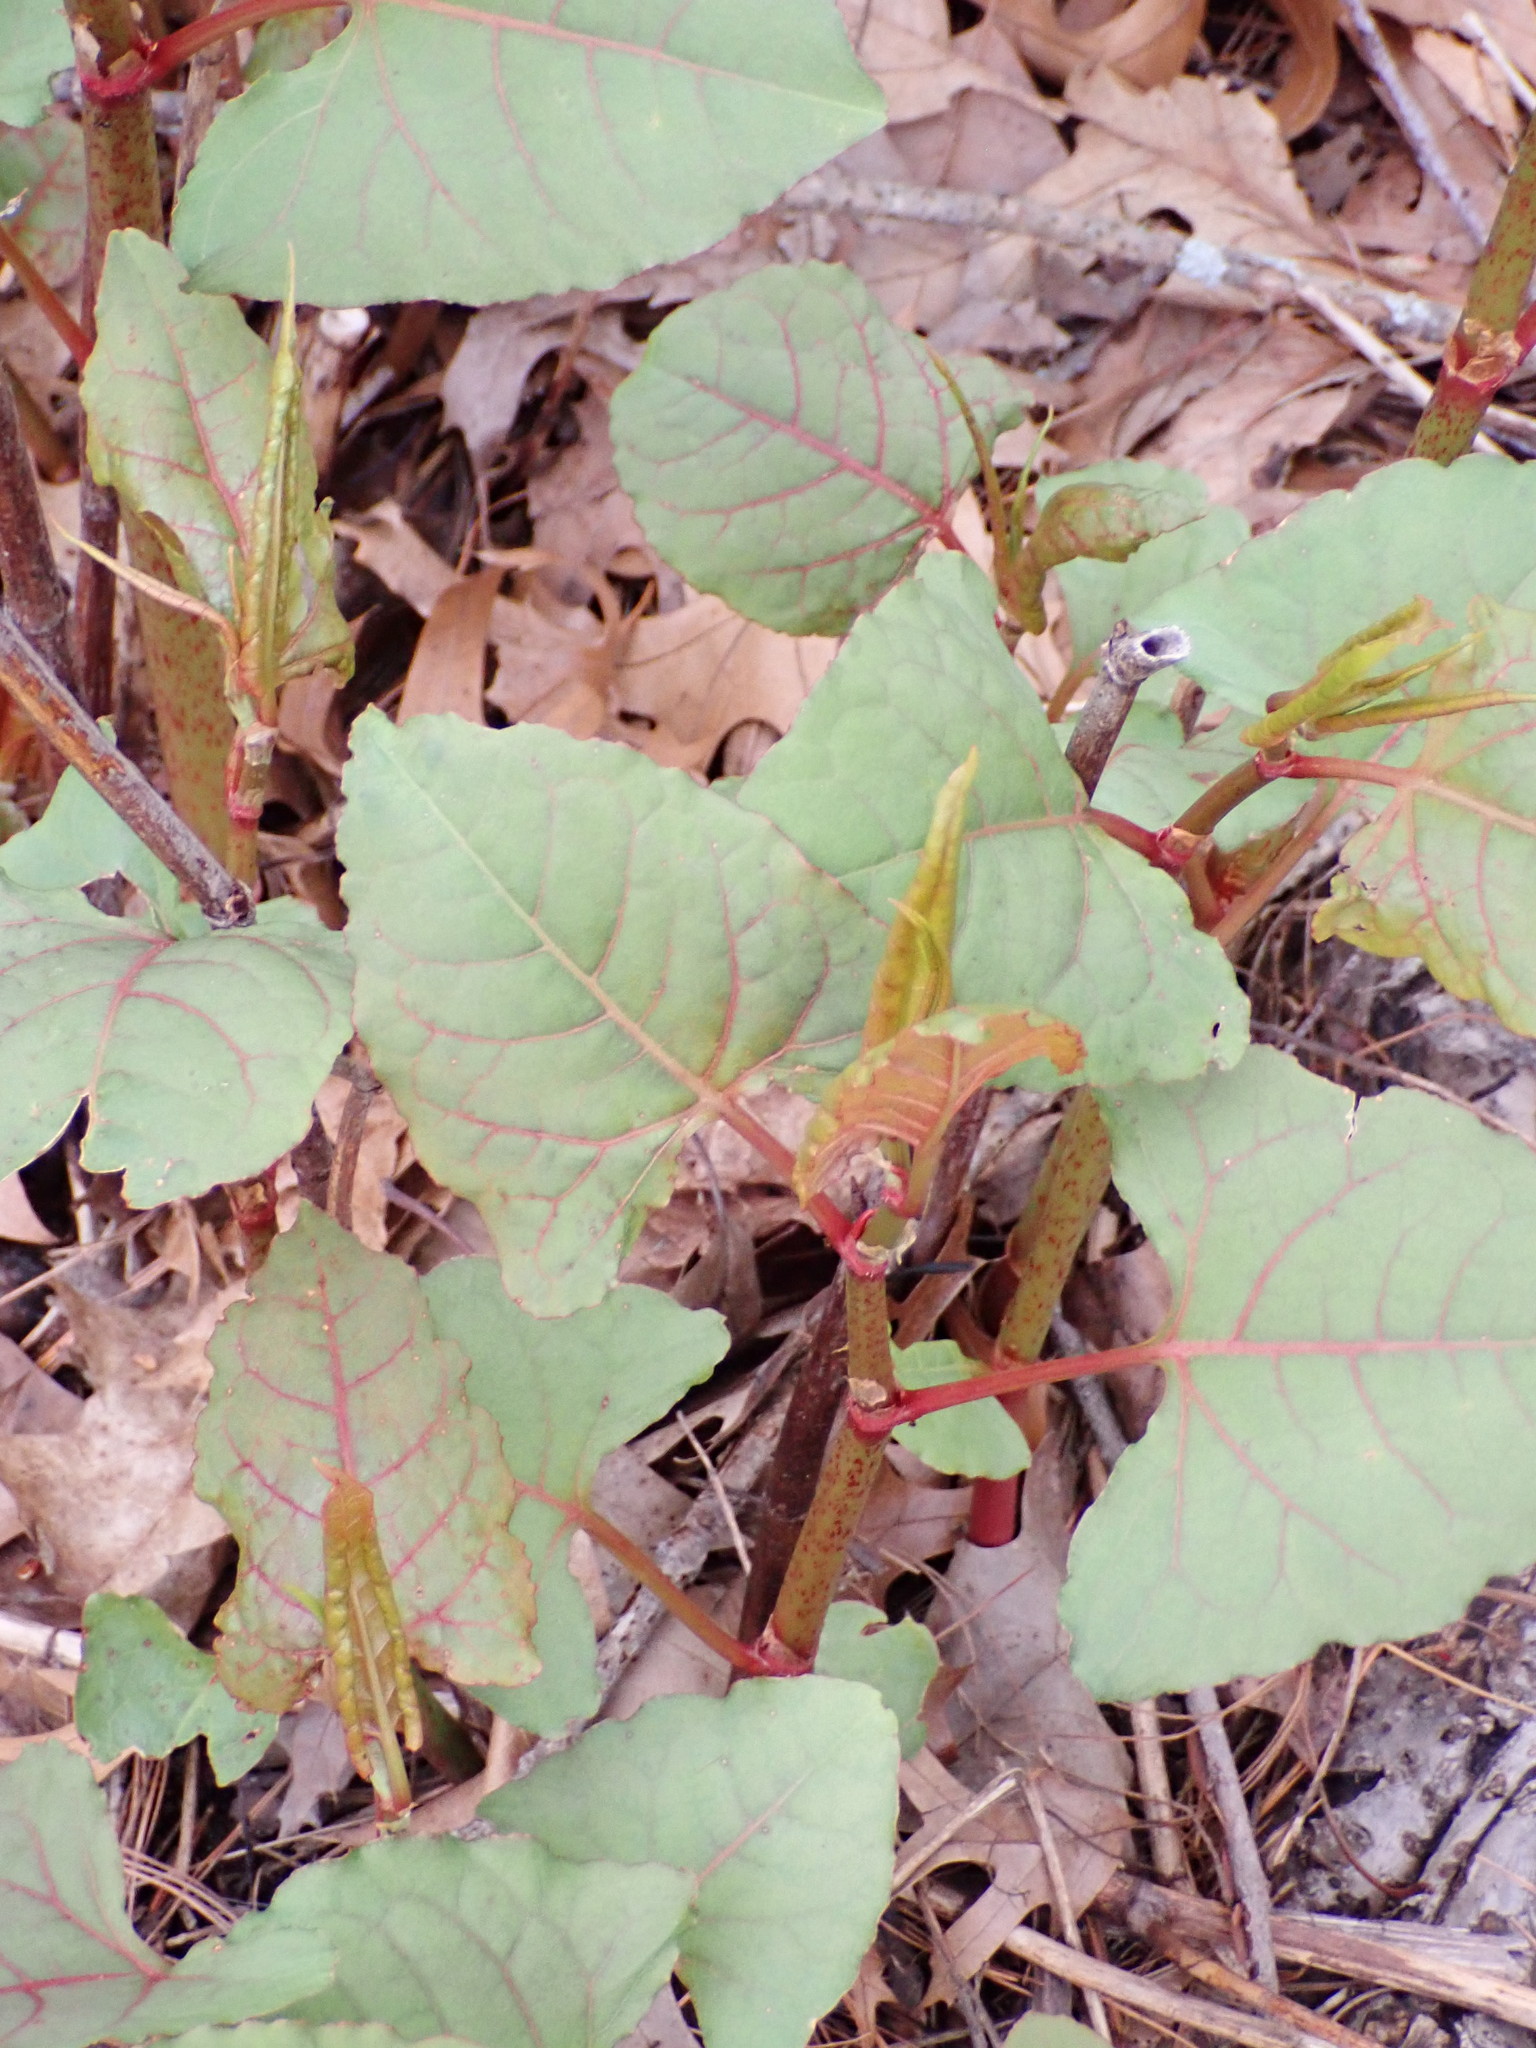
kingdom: Plantae
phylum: Tracheophyta
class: Magnoliopsida
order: Caryophyllales
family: Polygonaceae
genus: Reynoutria
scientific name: Reynoutria japonica
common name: Japanese knotweed
